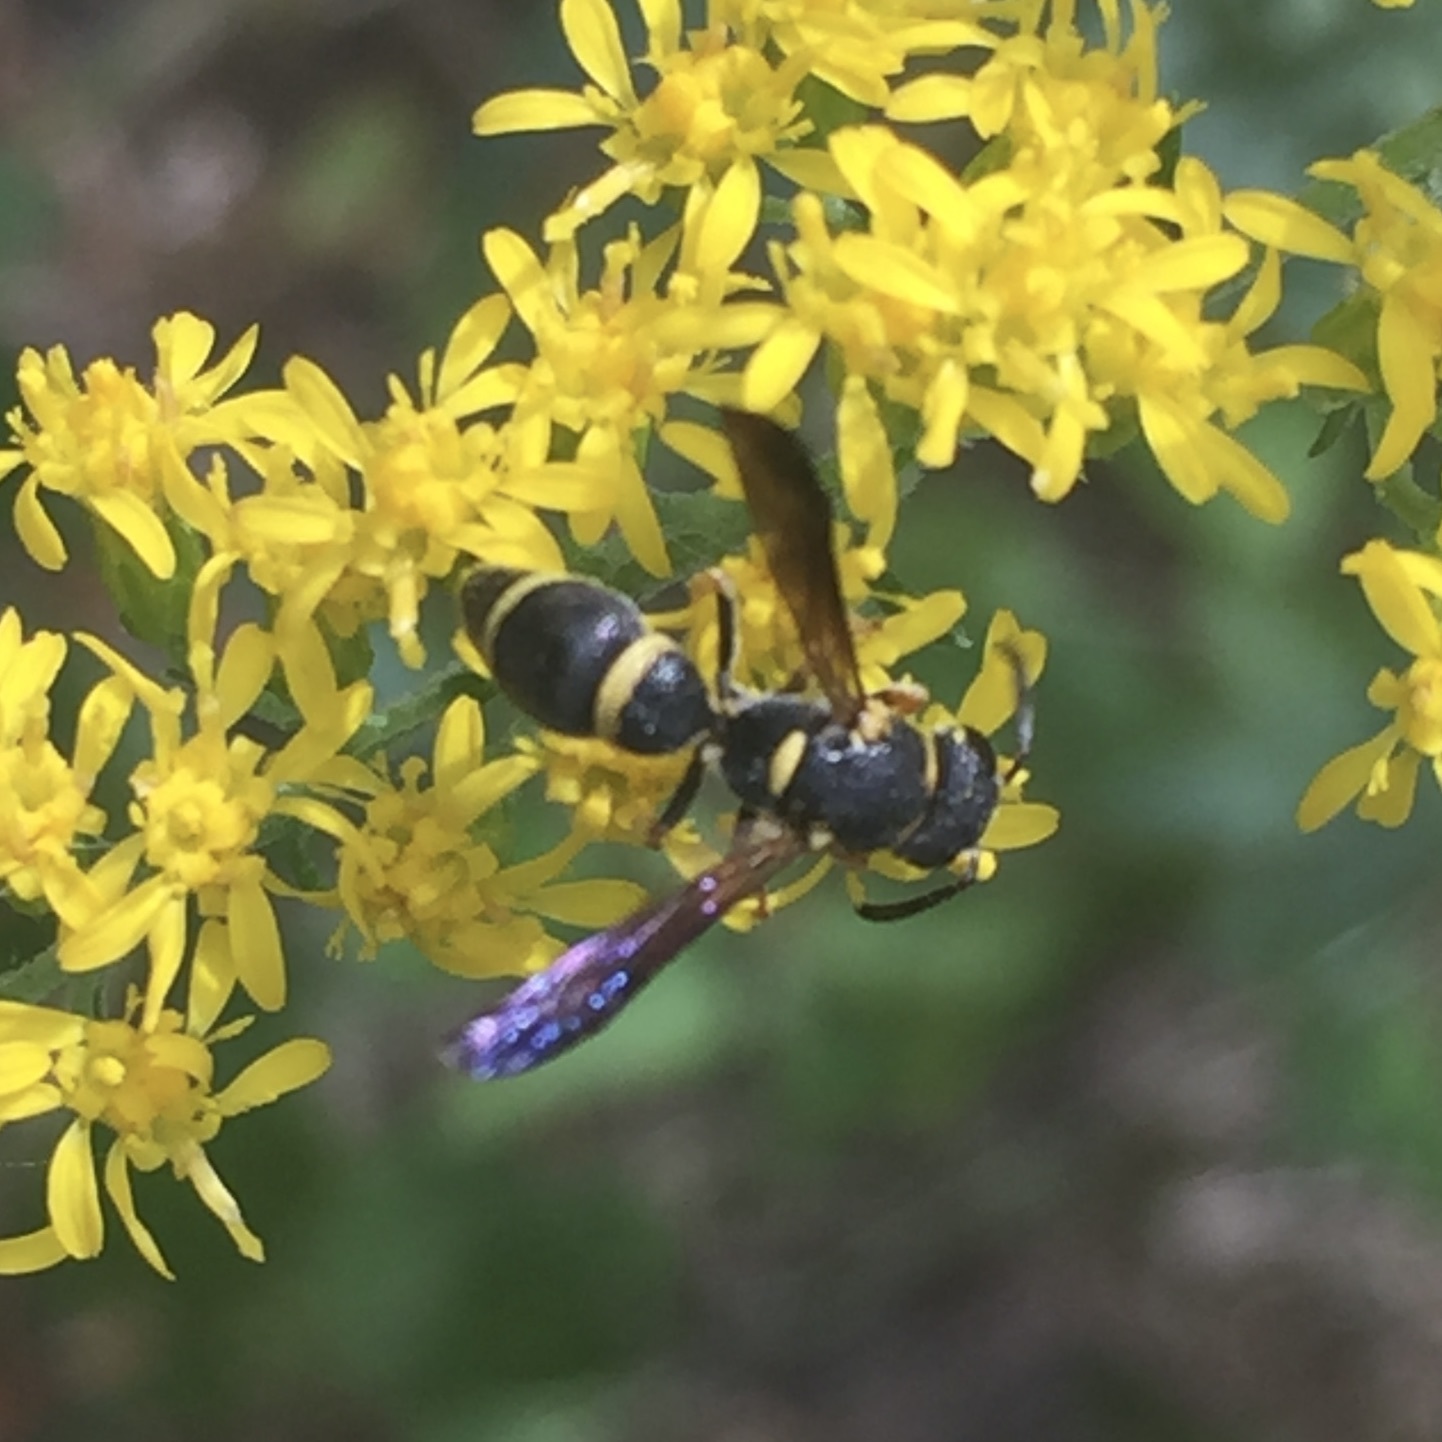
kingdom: Animalia
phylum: Arthropoda
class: Insecta
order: Hymenoptera
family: Eumenidae
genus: Parancistrocerus
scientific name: Parancistrocerus perennis
